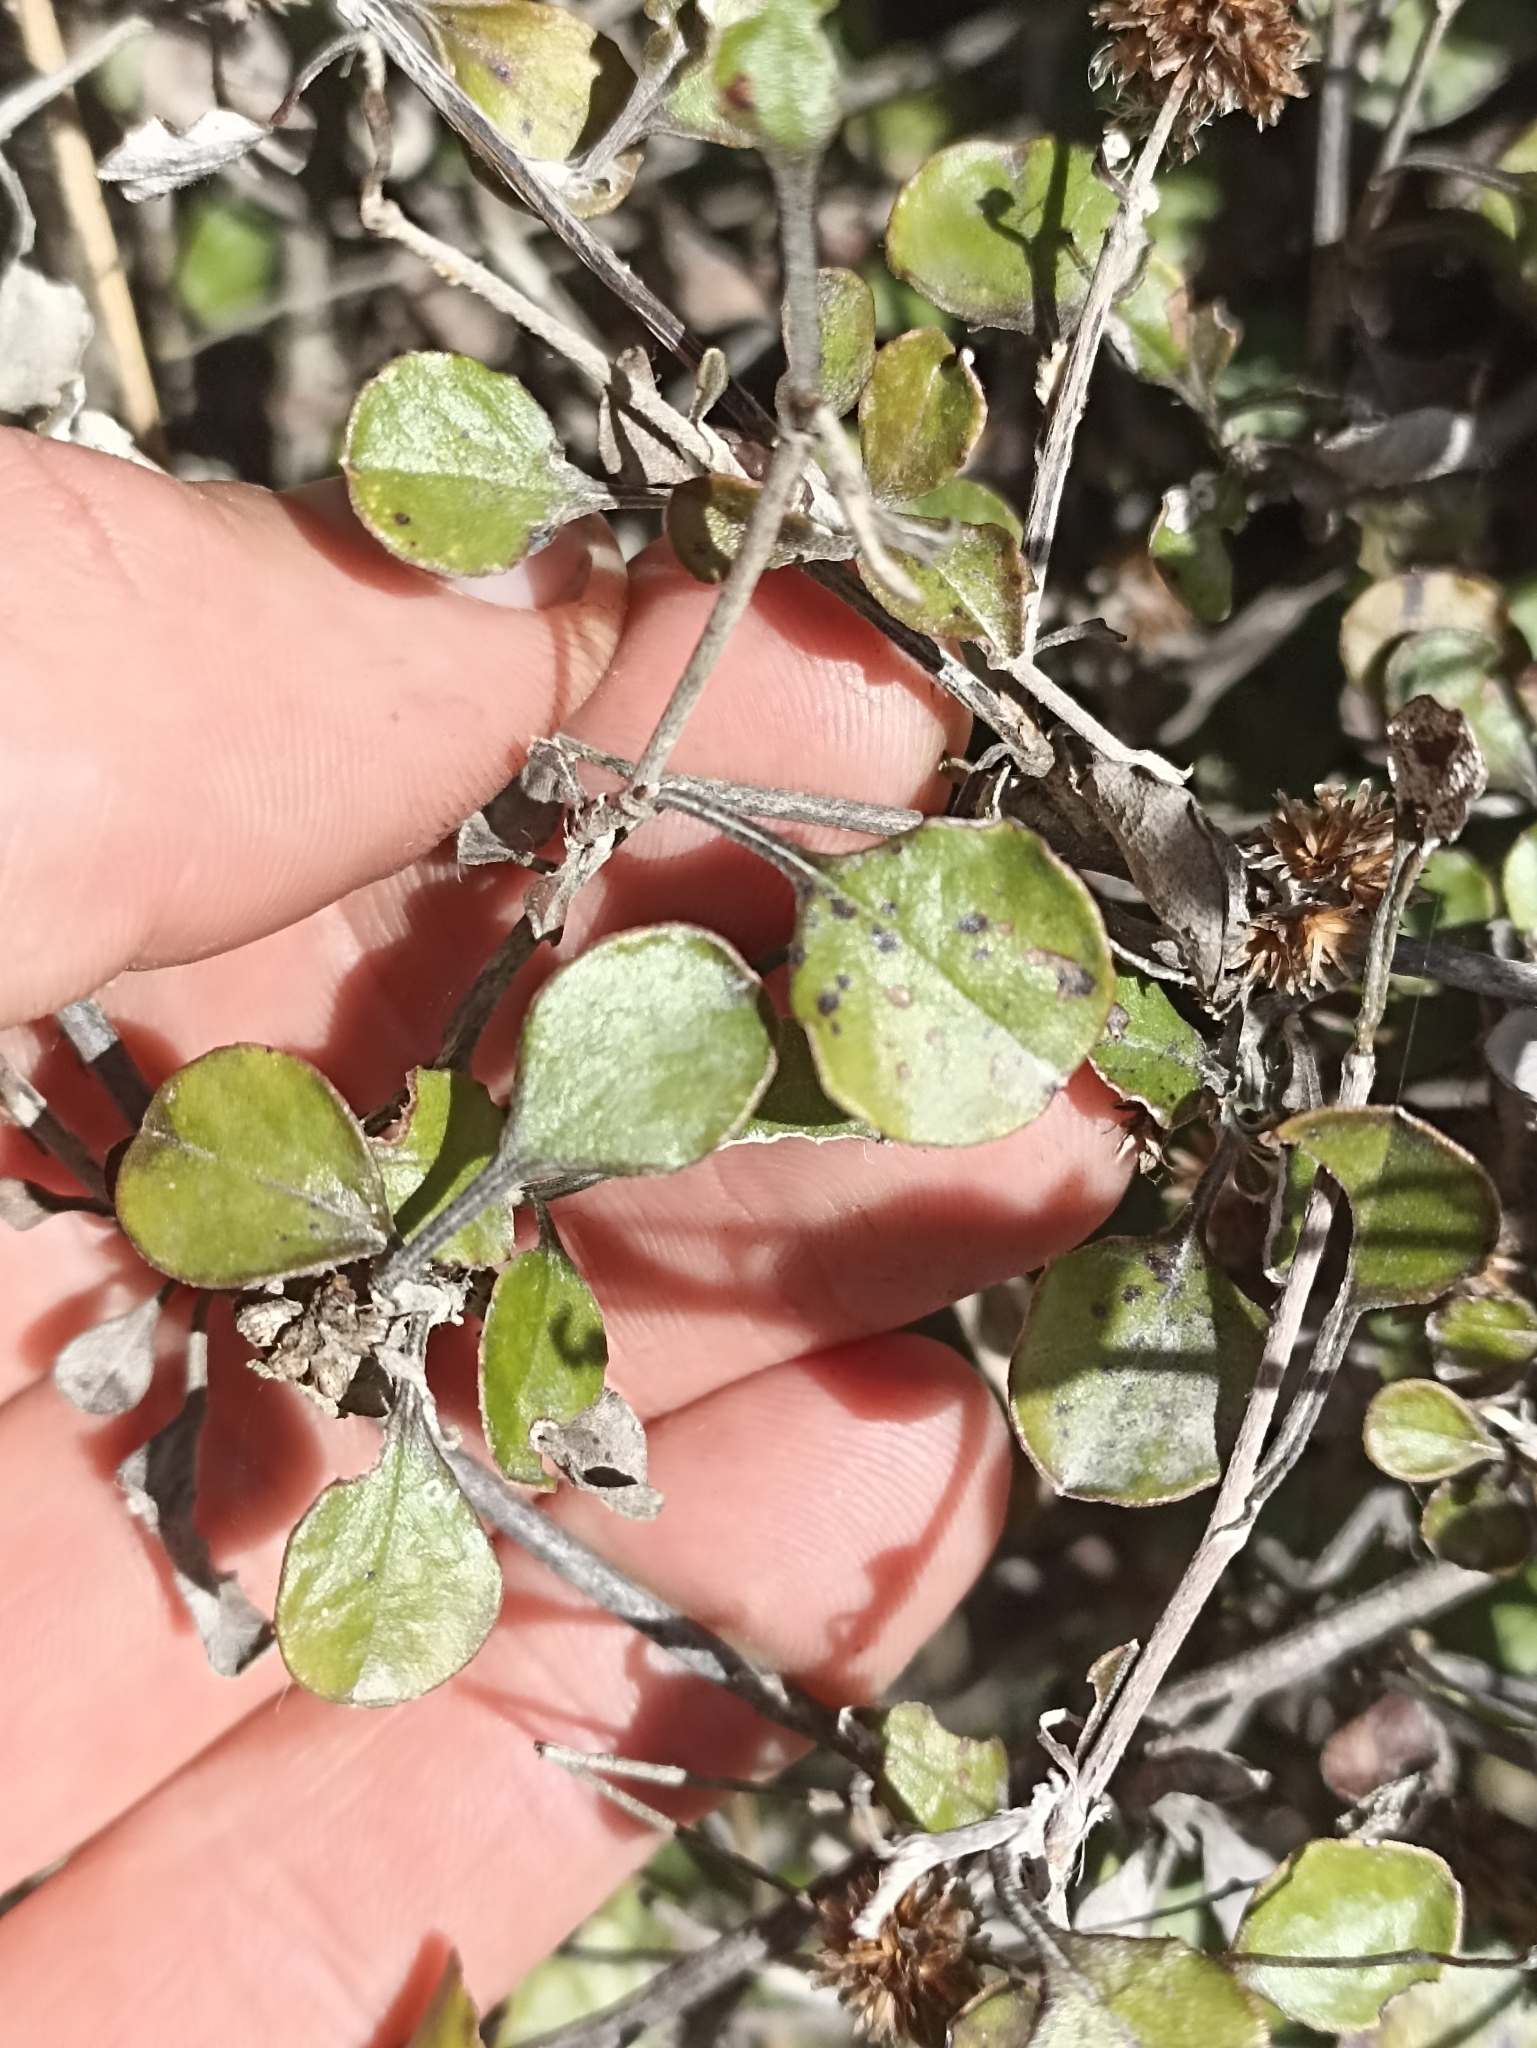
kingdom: Plantae
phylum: Tracheophyta
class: Magnoliopsida
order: Asterales
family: Asteraceae
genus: Ozothamnus
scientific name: Ozothamnus glomeratus
